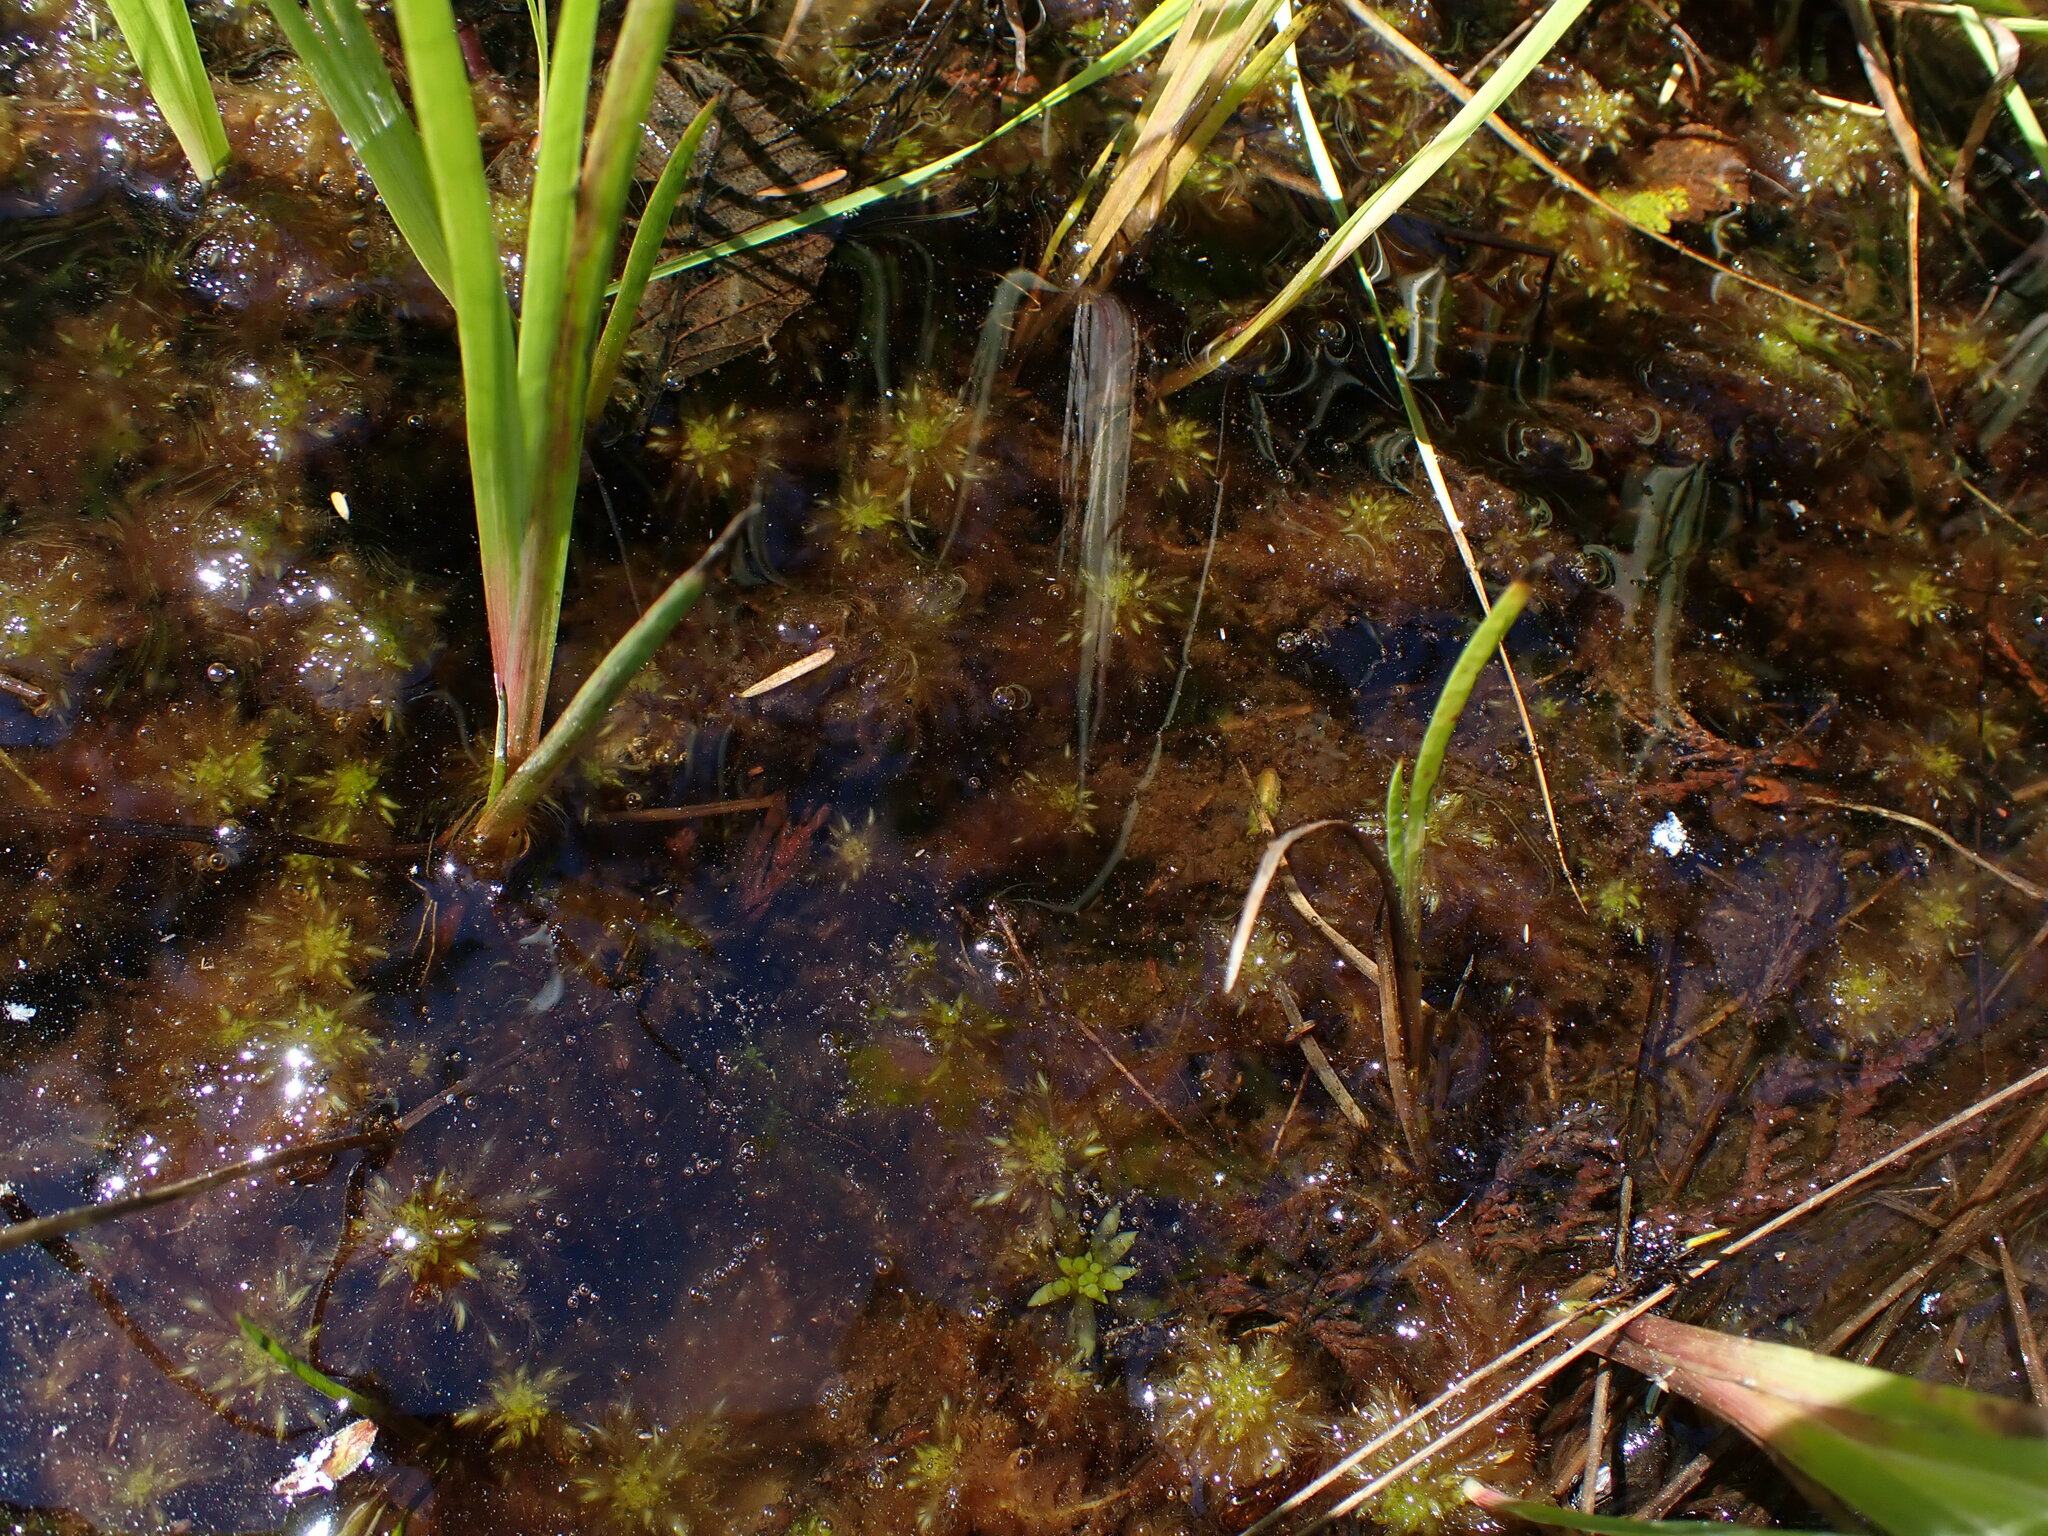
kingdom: Plantae
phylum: Bryophyta
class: Sphagnopsida
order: Sphagnales
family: Sphagnaceae
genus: Sphagnum
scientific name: Sphagnum pacificum
